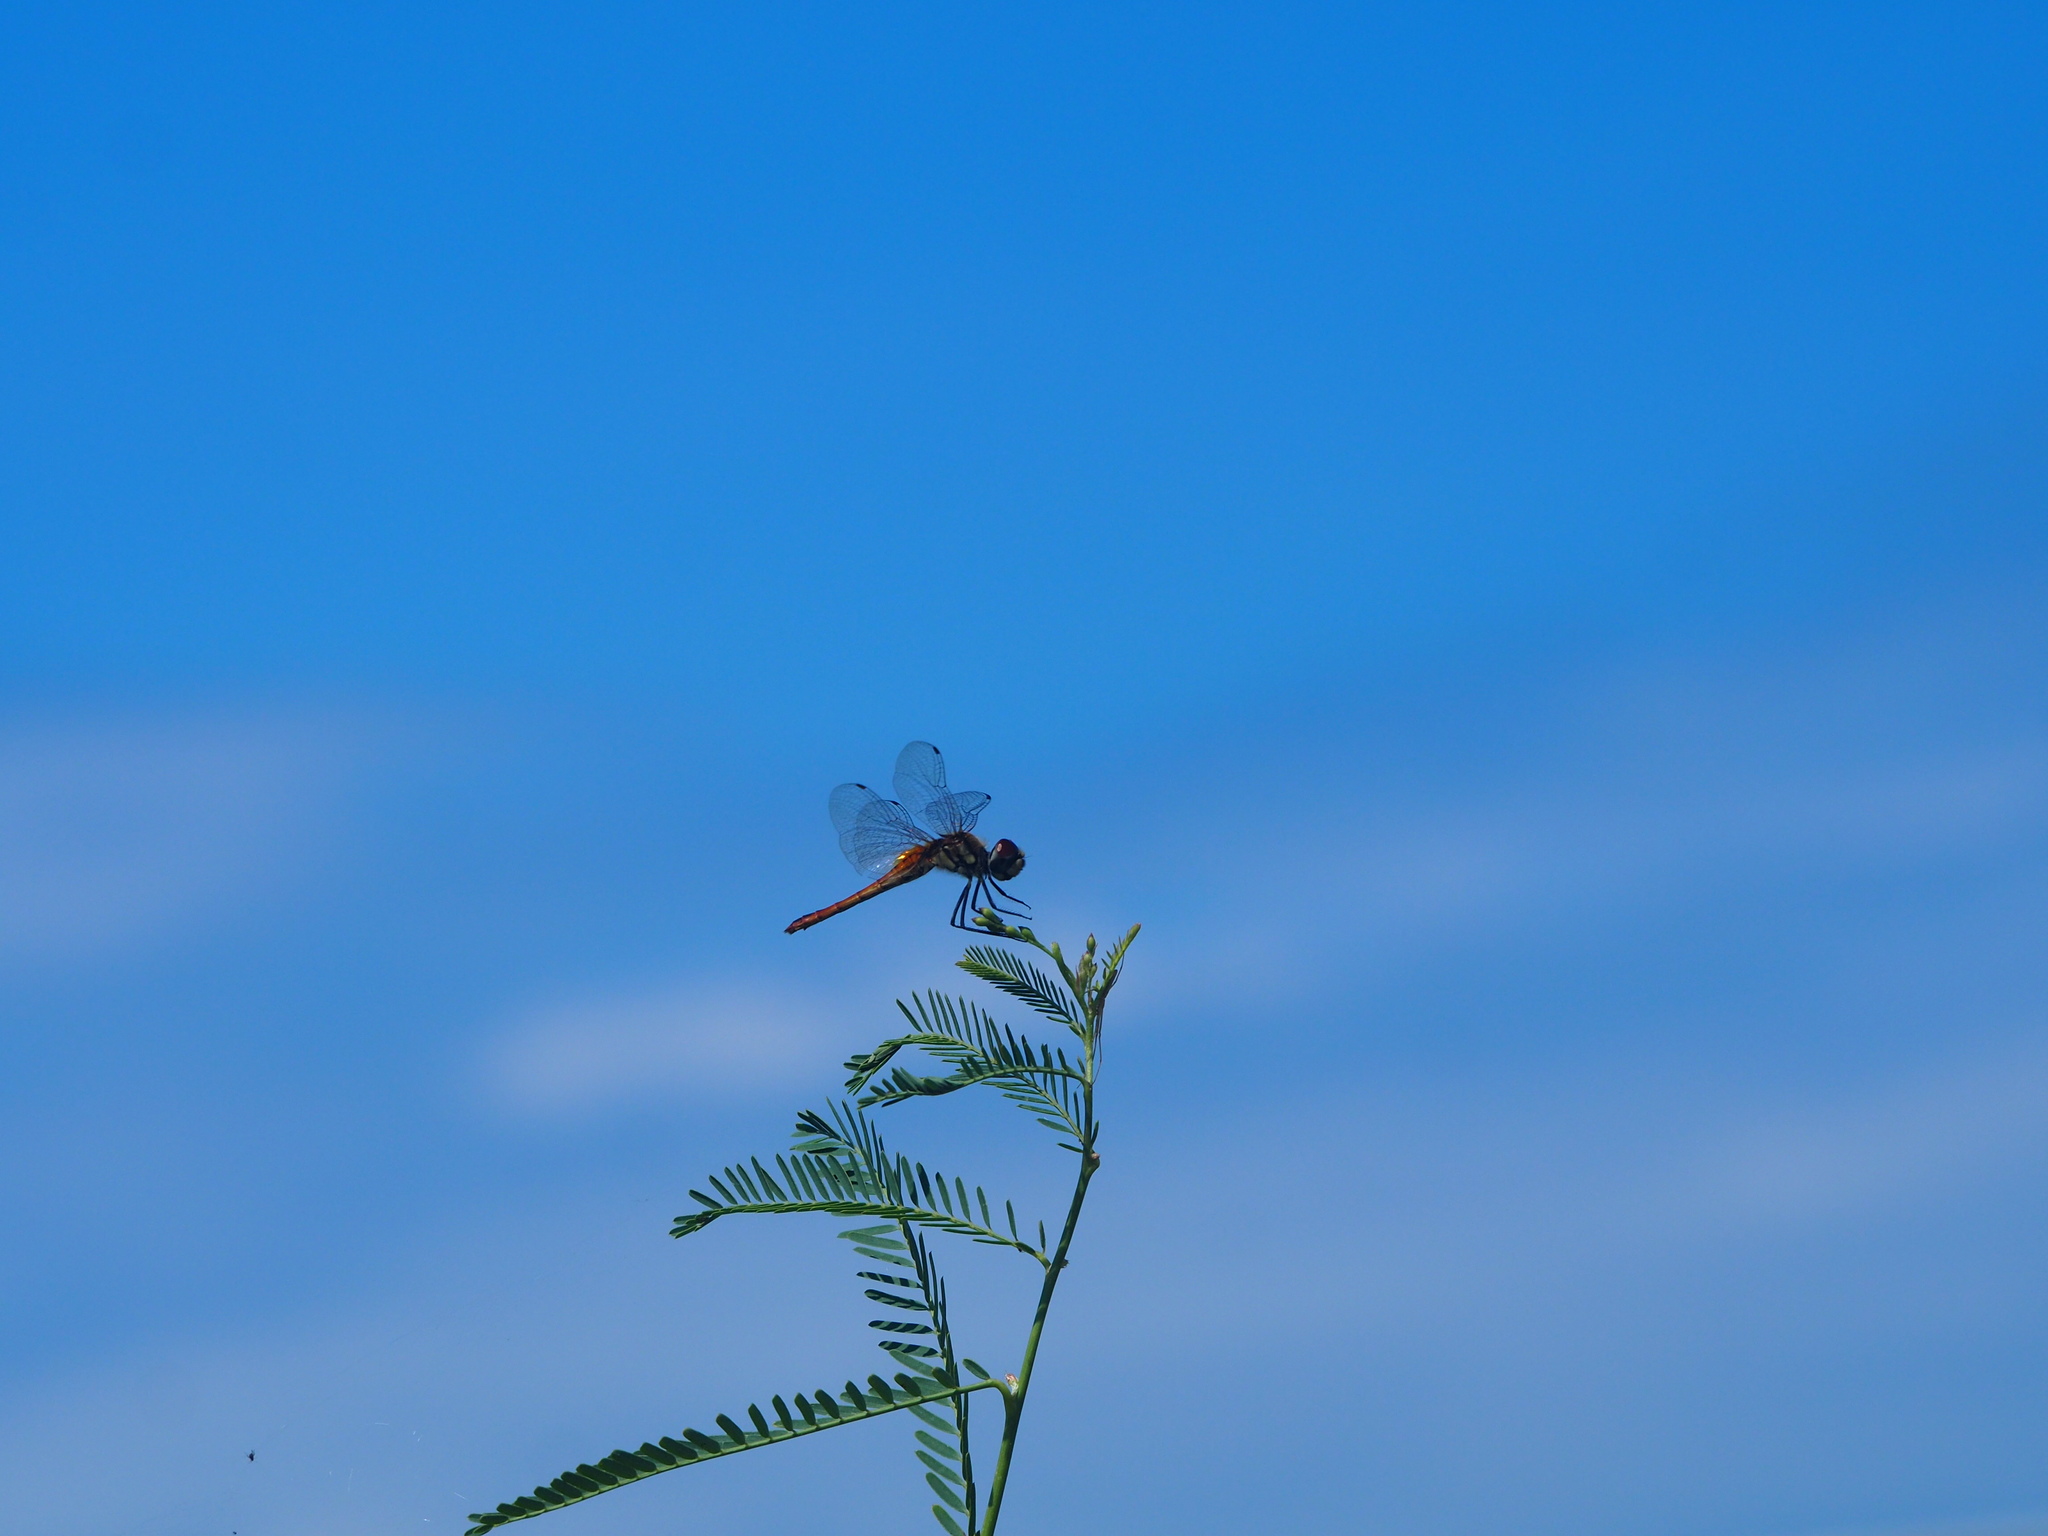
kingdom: Animalia
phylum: Arthropoda
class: Insecta
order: Odonata
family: Libellulidae
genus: Macrodiplax
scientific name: Macrodiplax cora
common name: Coastal glider
